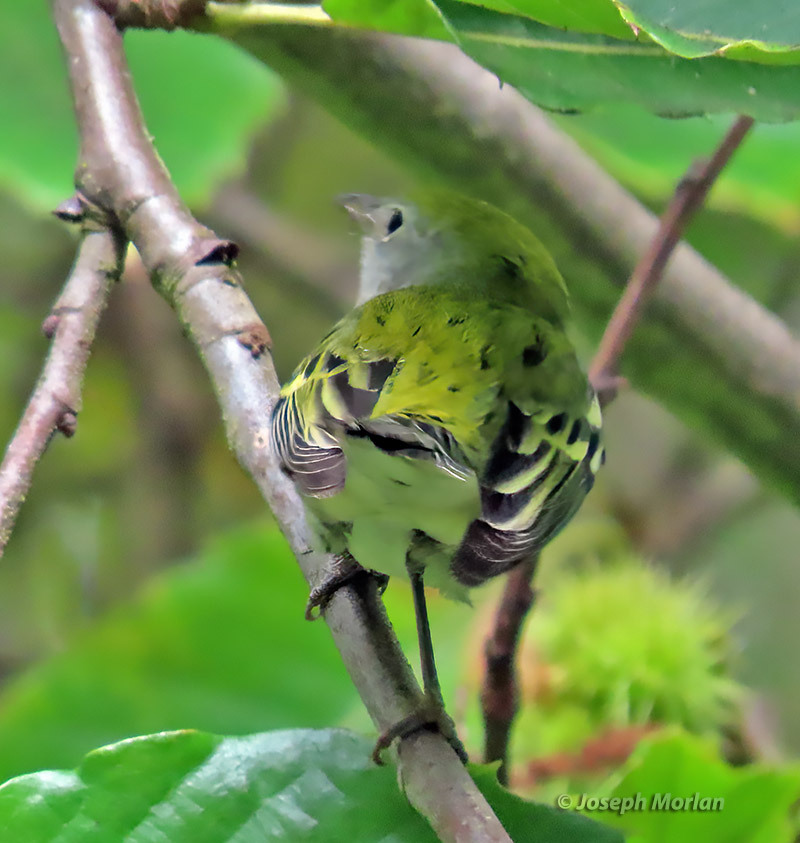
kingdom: Animalia
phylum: Chordata
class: Aves
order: Passeriformes
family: Parulidae
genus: Setophaga
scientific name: Setophaga pensylvanica
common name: Chestnut-sided warbler
